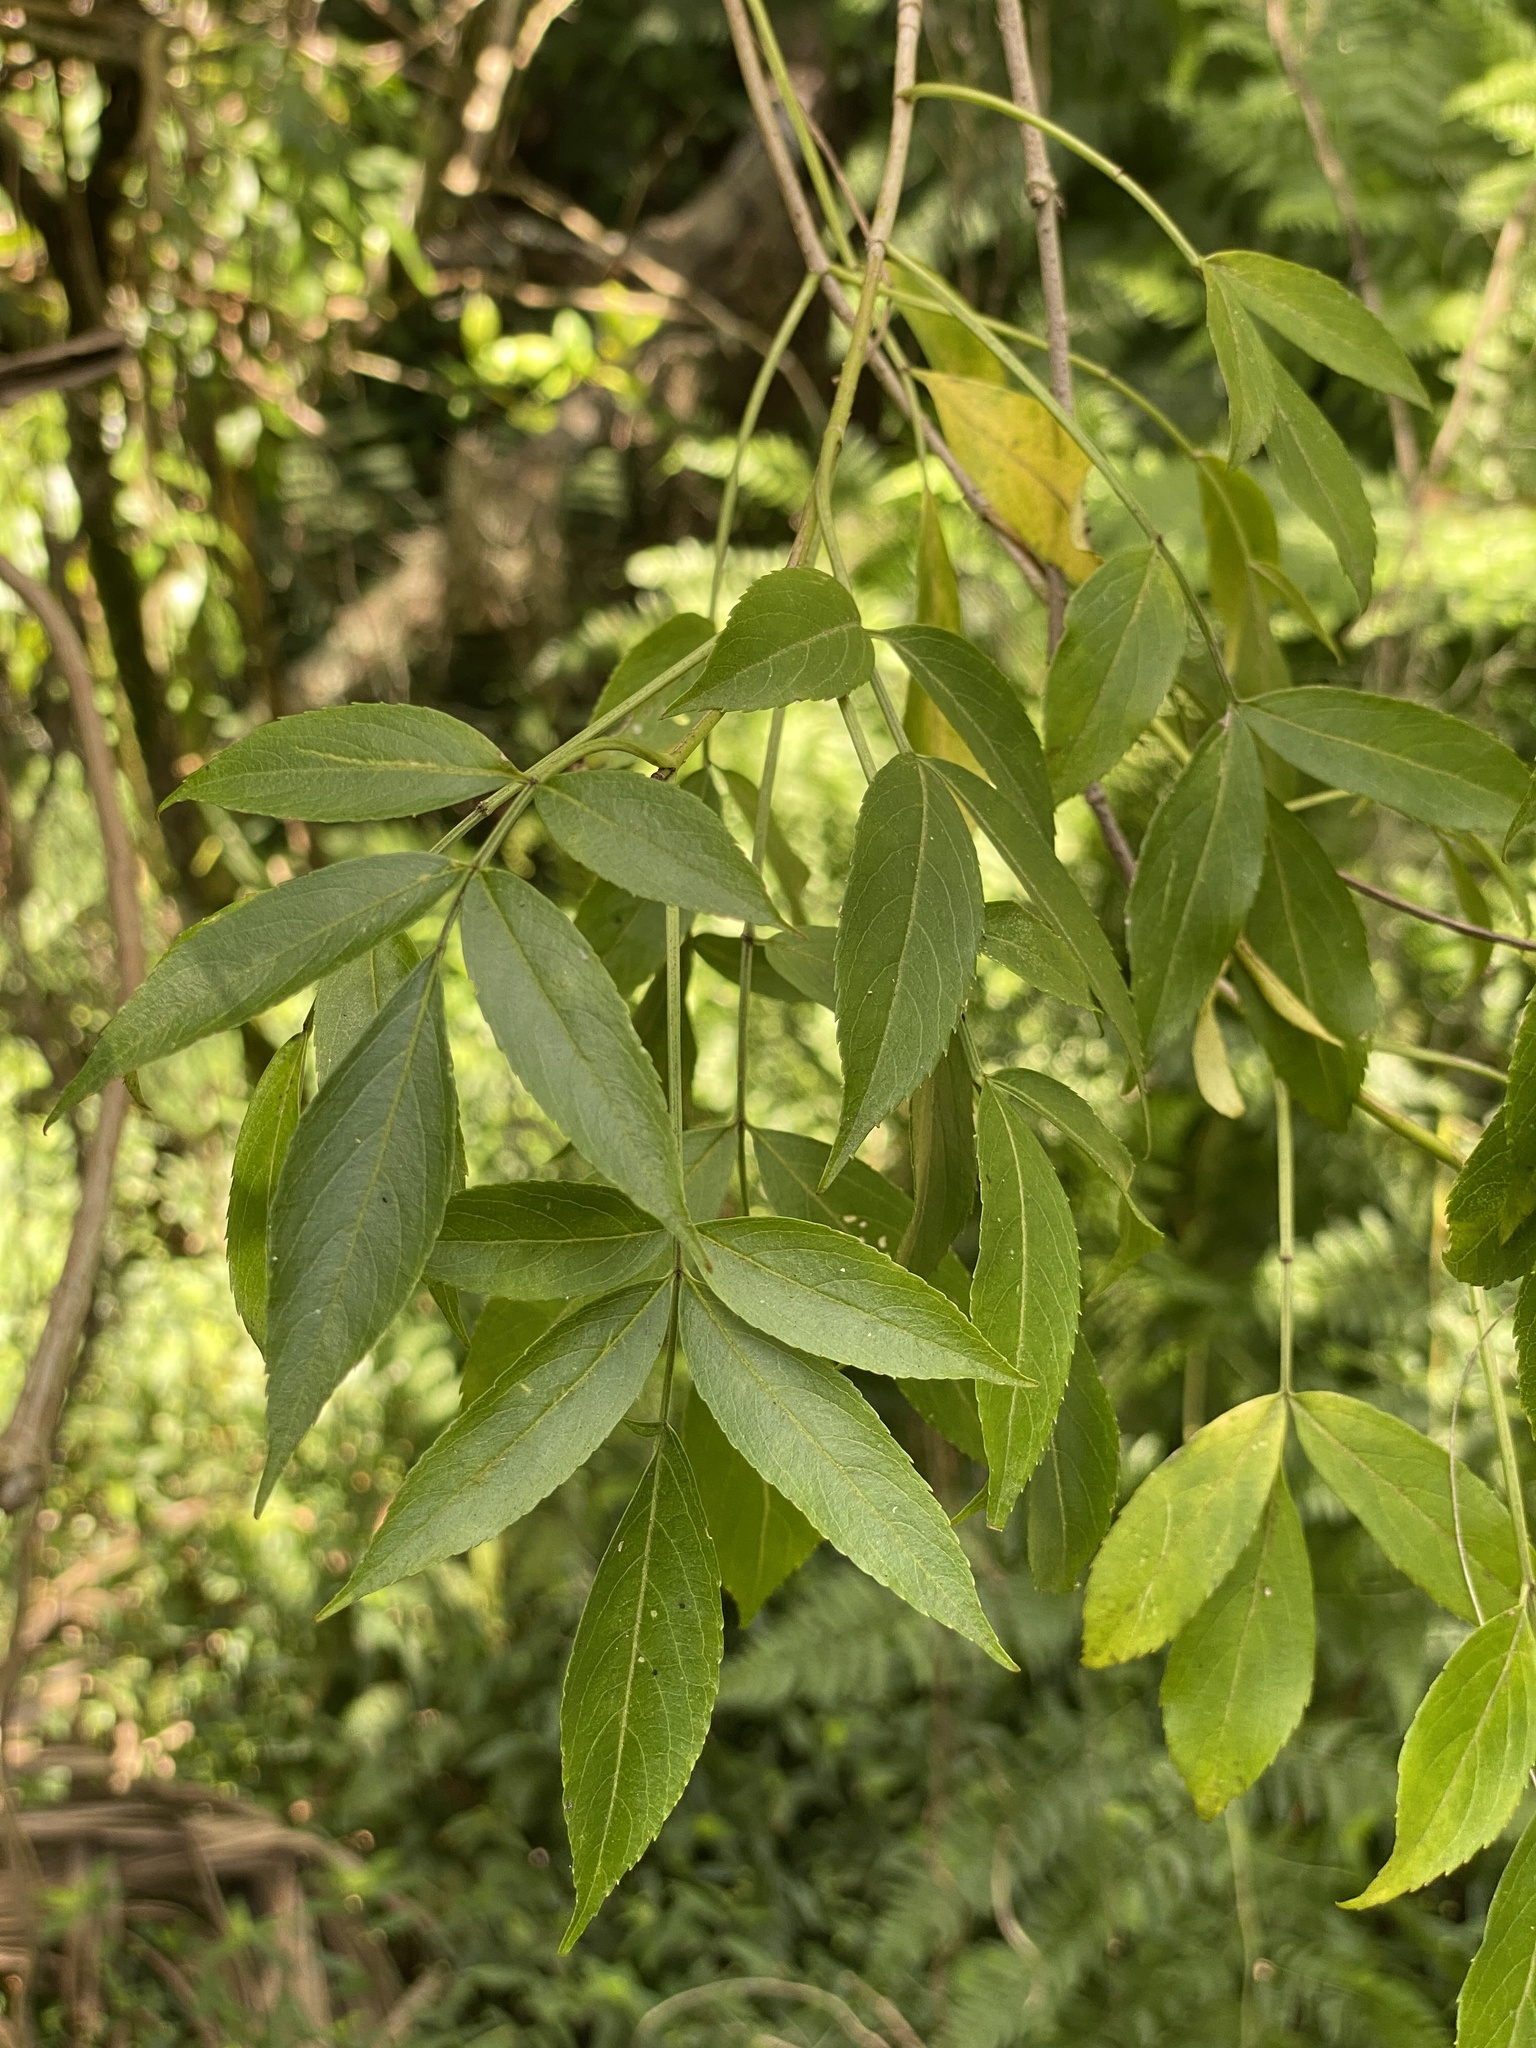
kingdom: Plantae
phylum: Tracheophyta
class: Magnoliopsida
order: Dipsacales
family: Viburnaceae
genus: Sambucus
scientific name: Sambucus canadensis
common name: American elder
